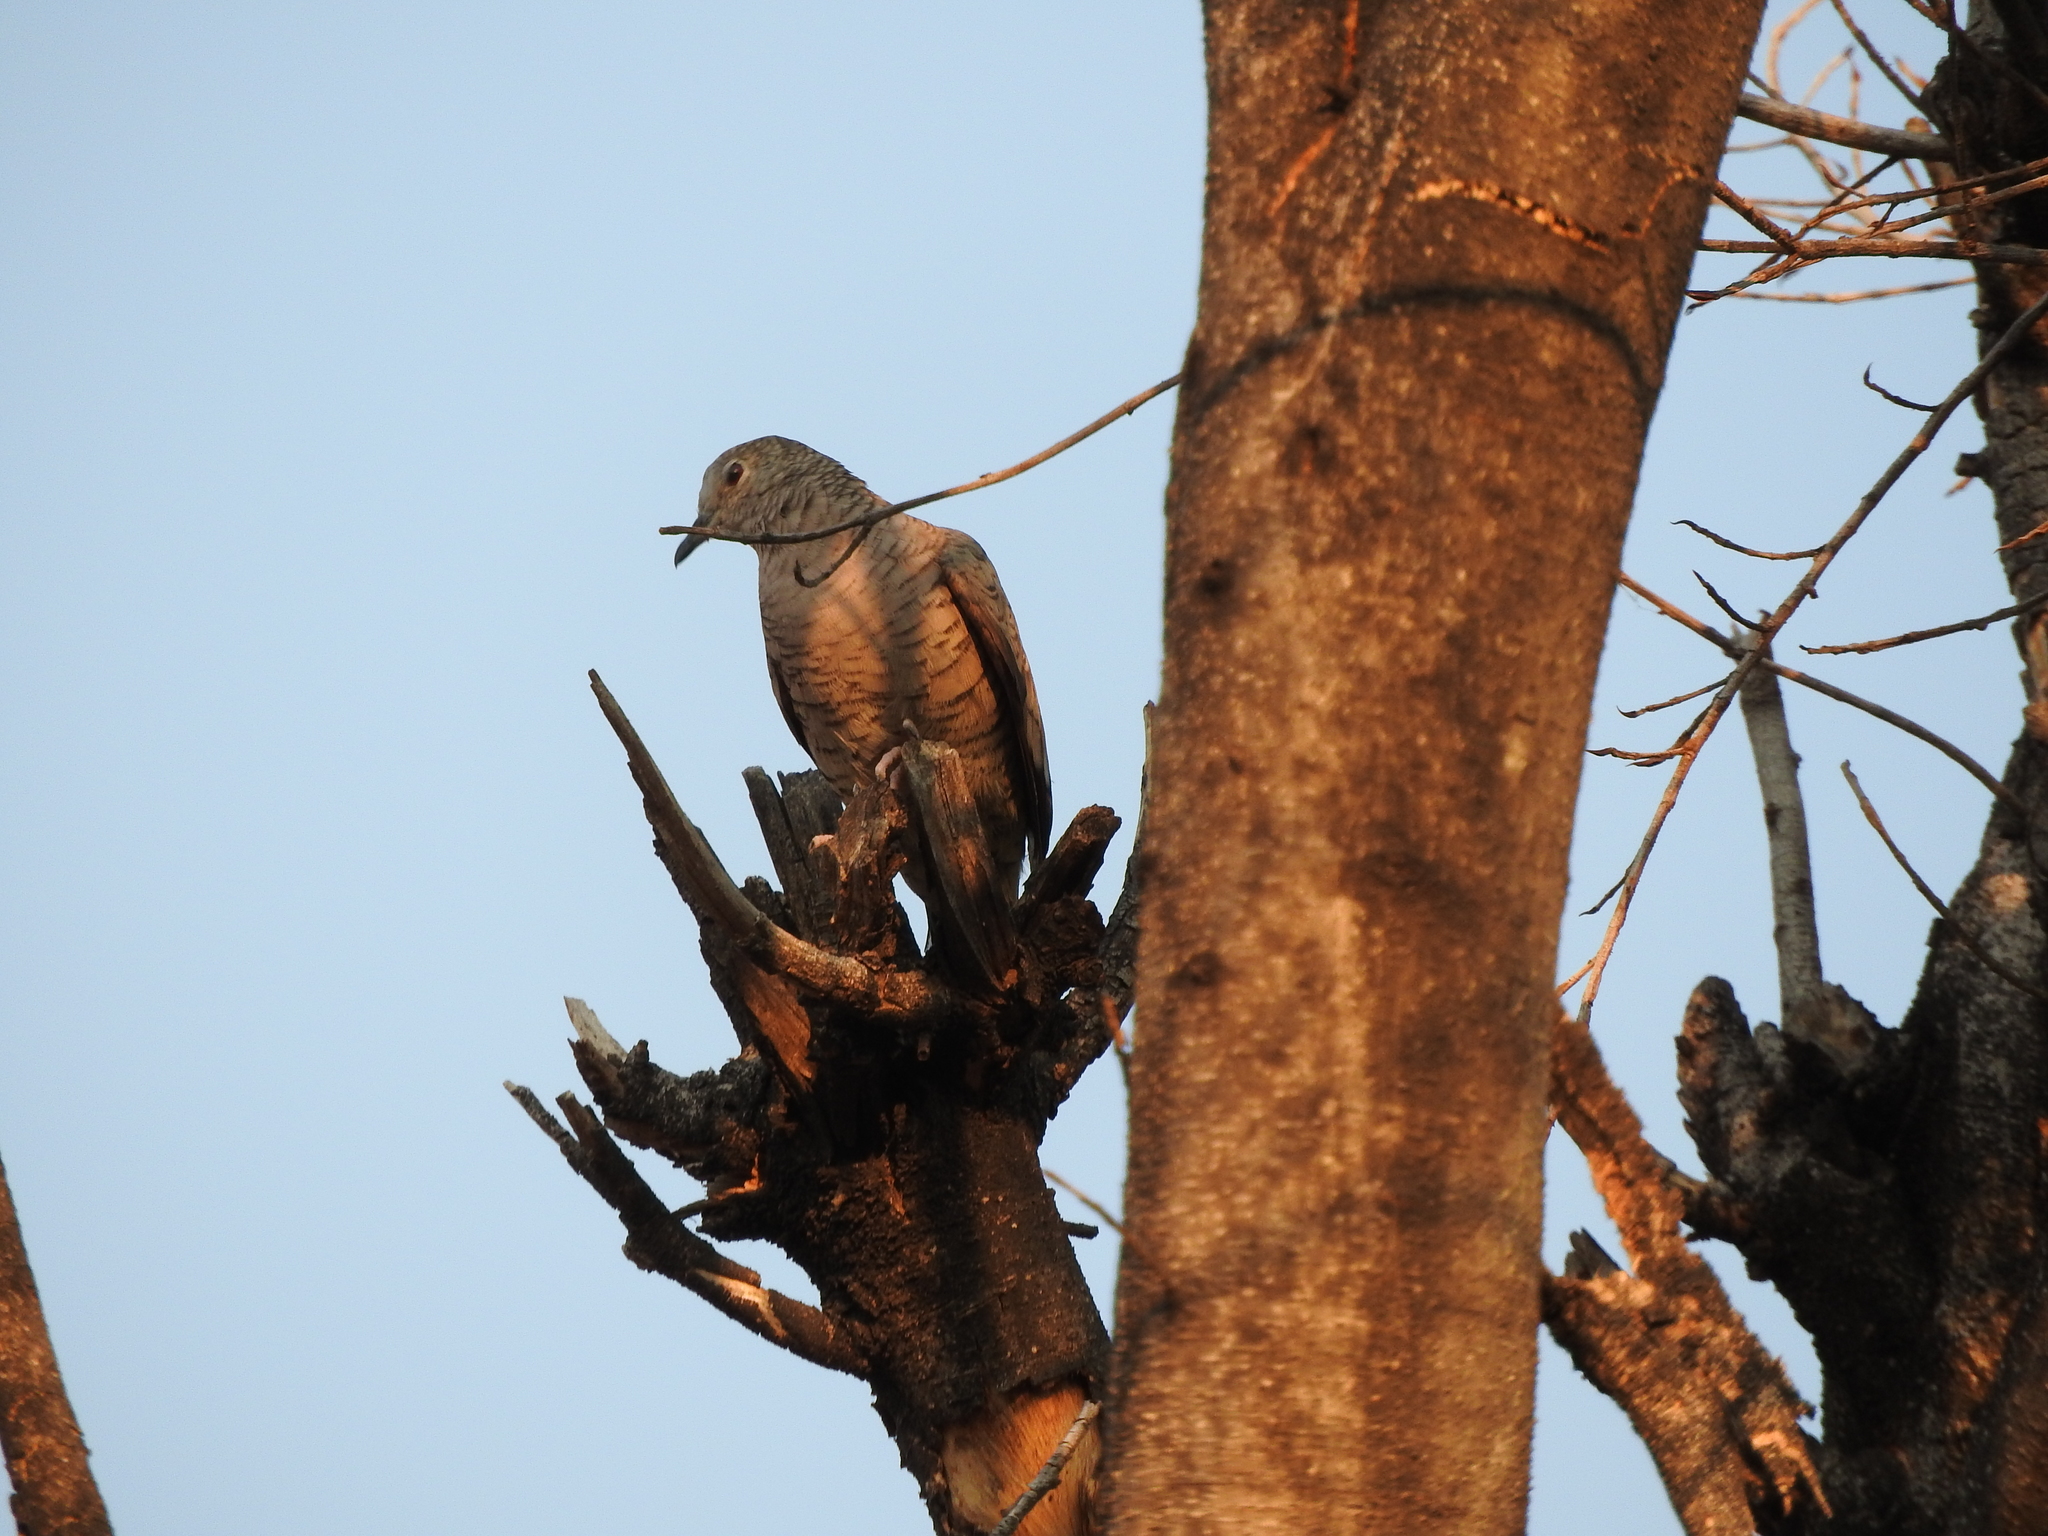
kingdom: Animalia
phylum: Chordata
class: Aves
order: Columbiformes
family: Columbidae
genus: Columbina
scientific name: Columbina inca
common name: Inca dove
